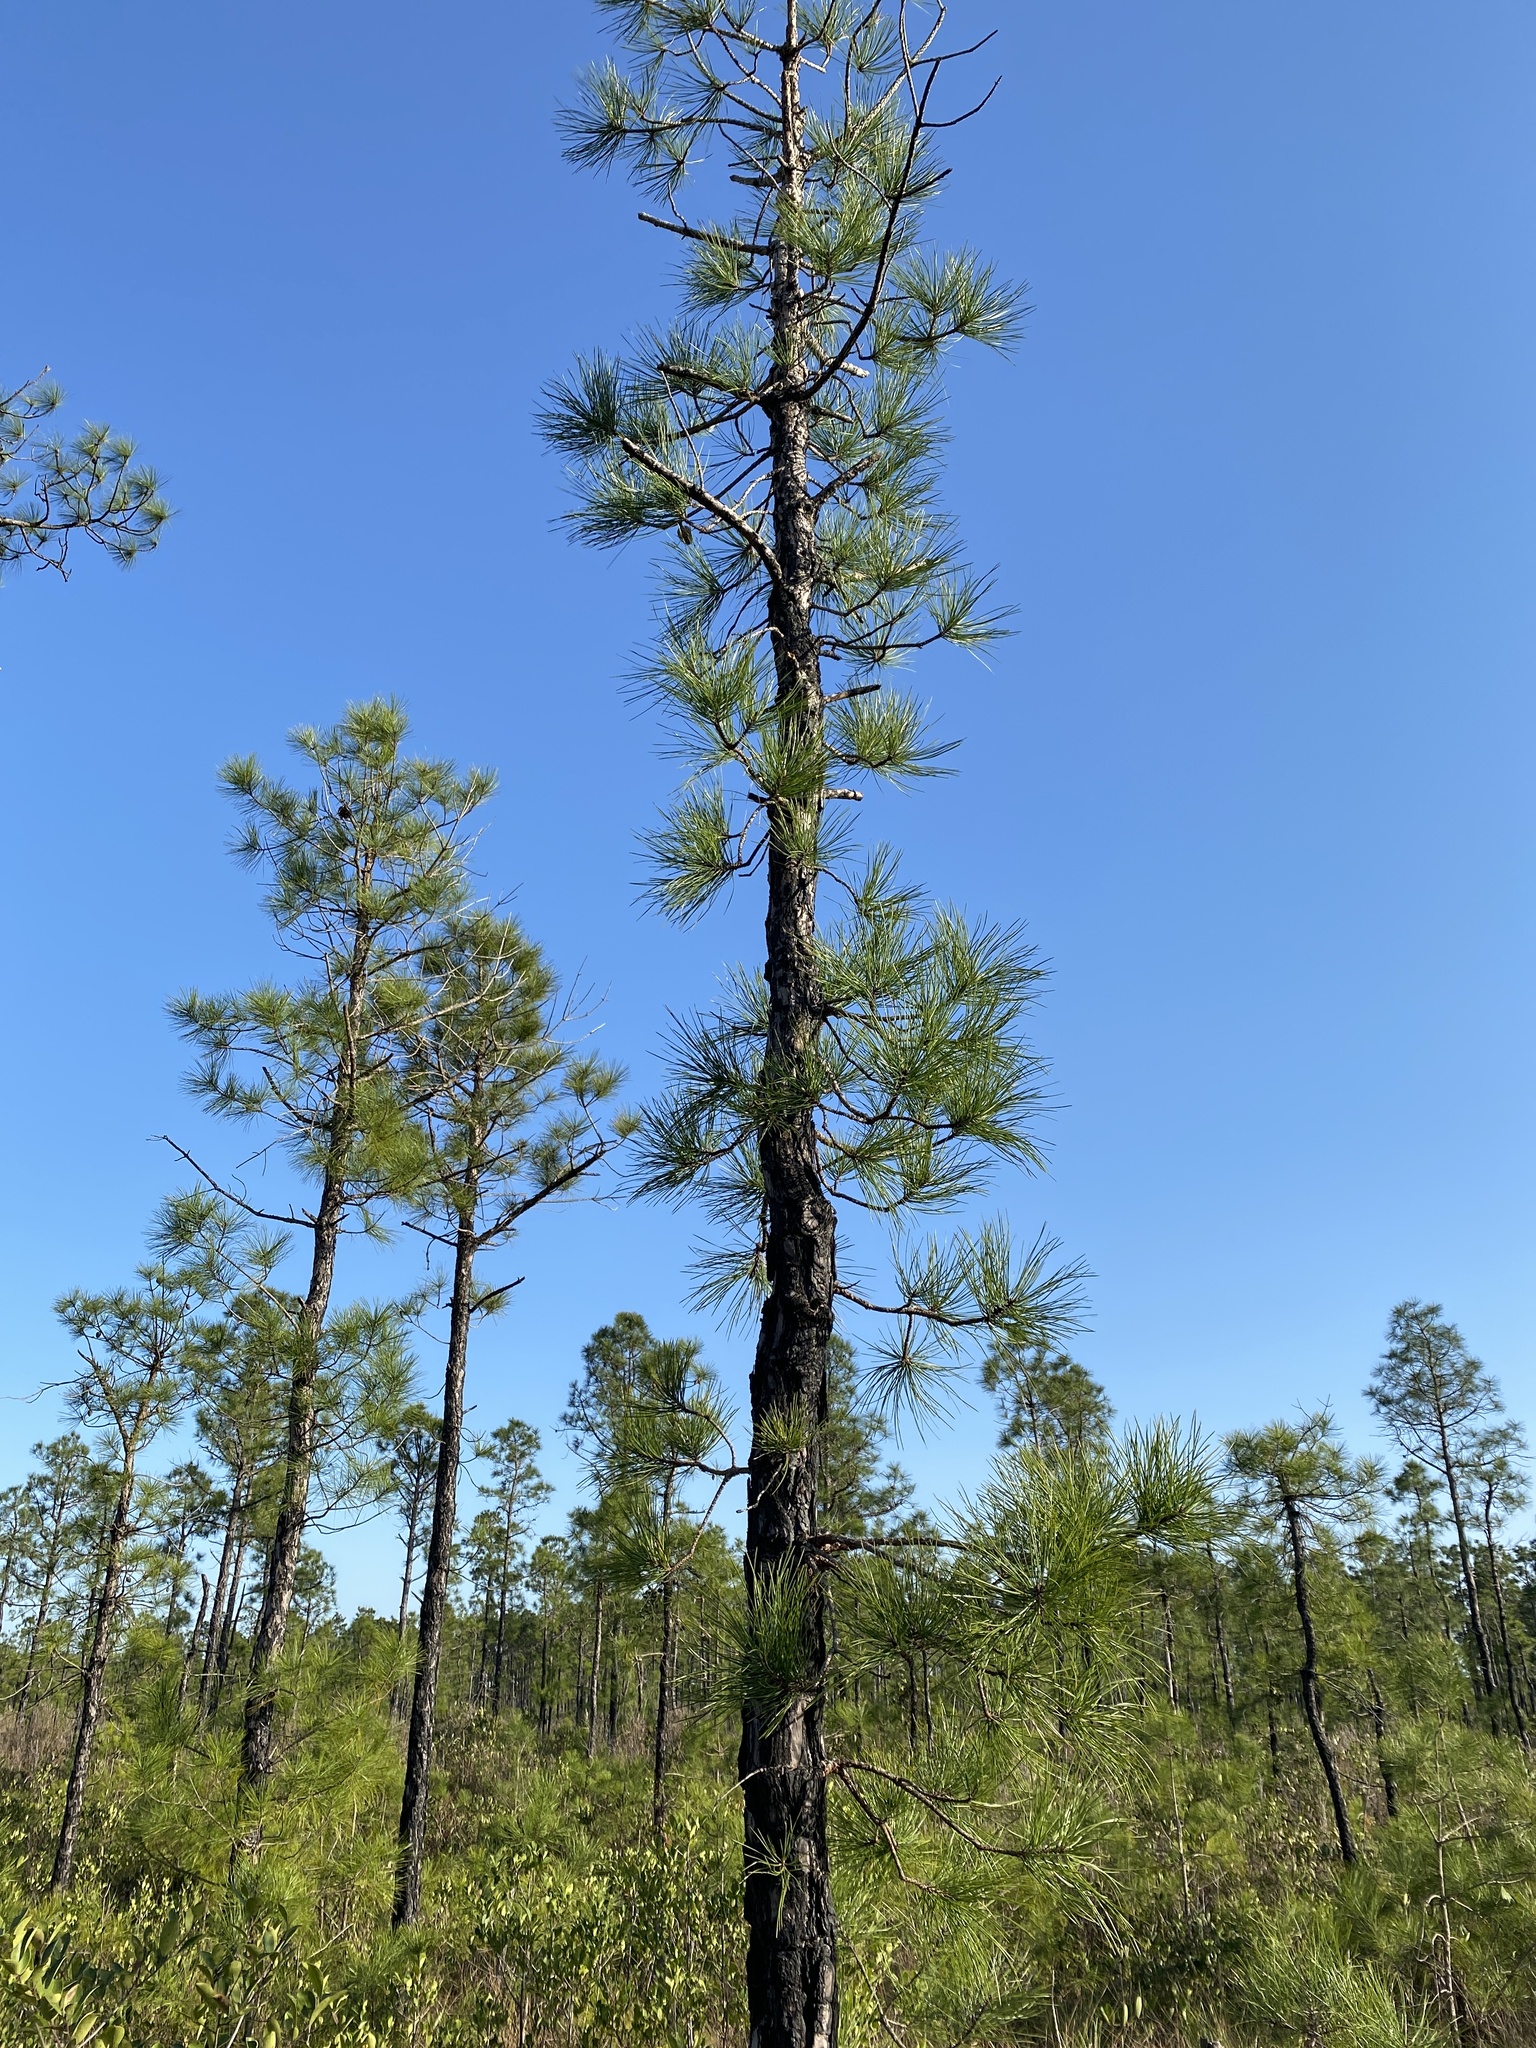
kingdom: Plantae
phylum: Tracheophyta
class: Pinopsida
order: Pinales
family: Pinaceae
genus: Pinus
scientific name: Pinus serotina
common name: Marsh pine
